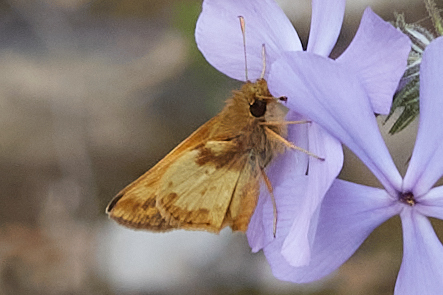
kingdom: Animalia
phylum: Arthropoda
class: Insecta
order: Lepidoptera
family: Hesperiidae
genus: Lon
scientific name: Lon zabulon
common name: Zabulon skipper
